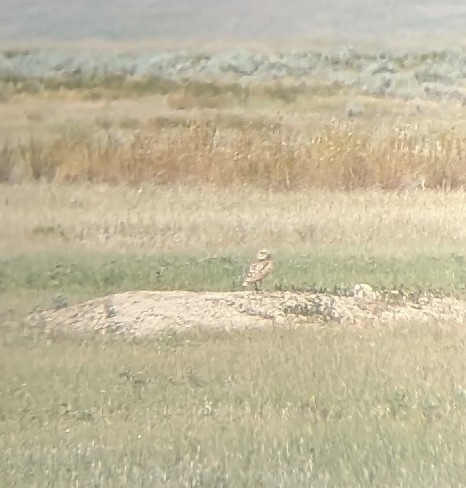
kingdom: Animalia
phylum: Chordata
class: Aves
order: Strigiformes
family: Strigidae
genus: Athene
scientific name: Athene cunicularia
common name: Burrowing owl
